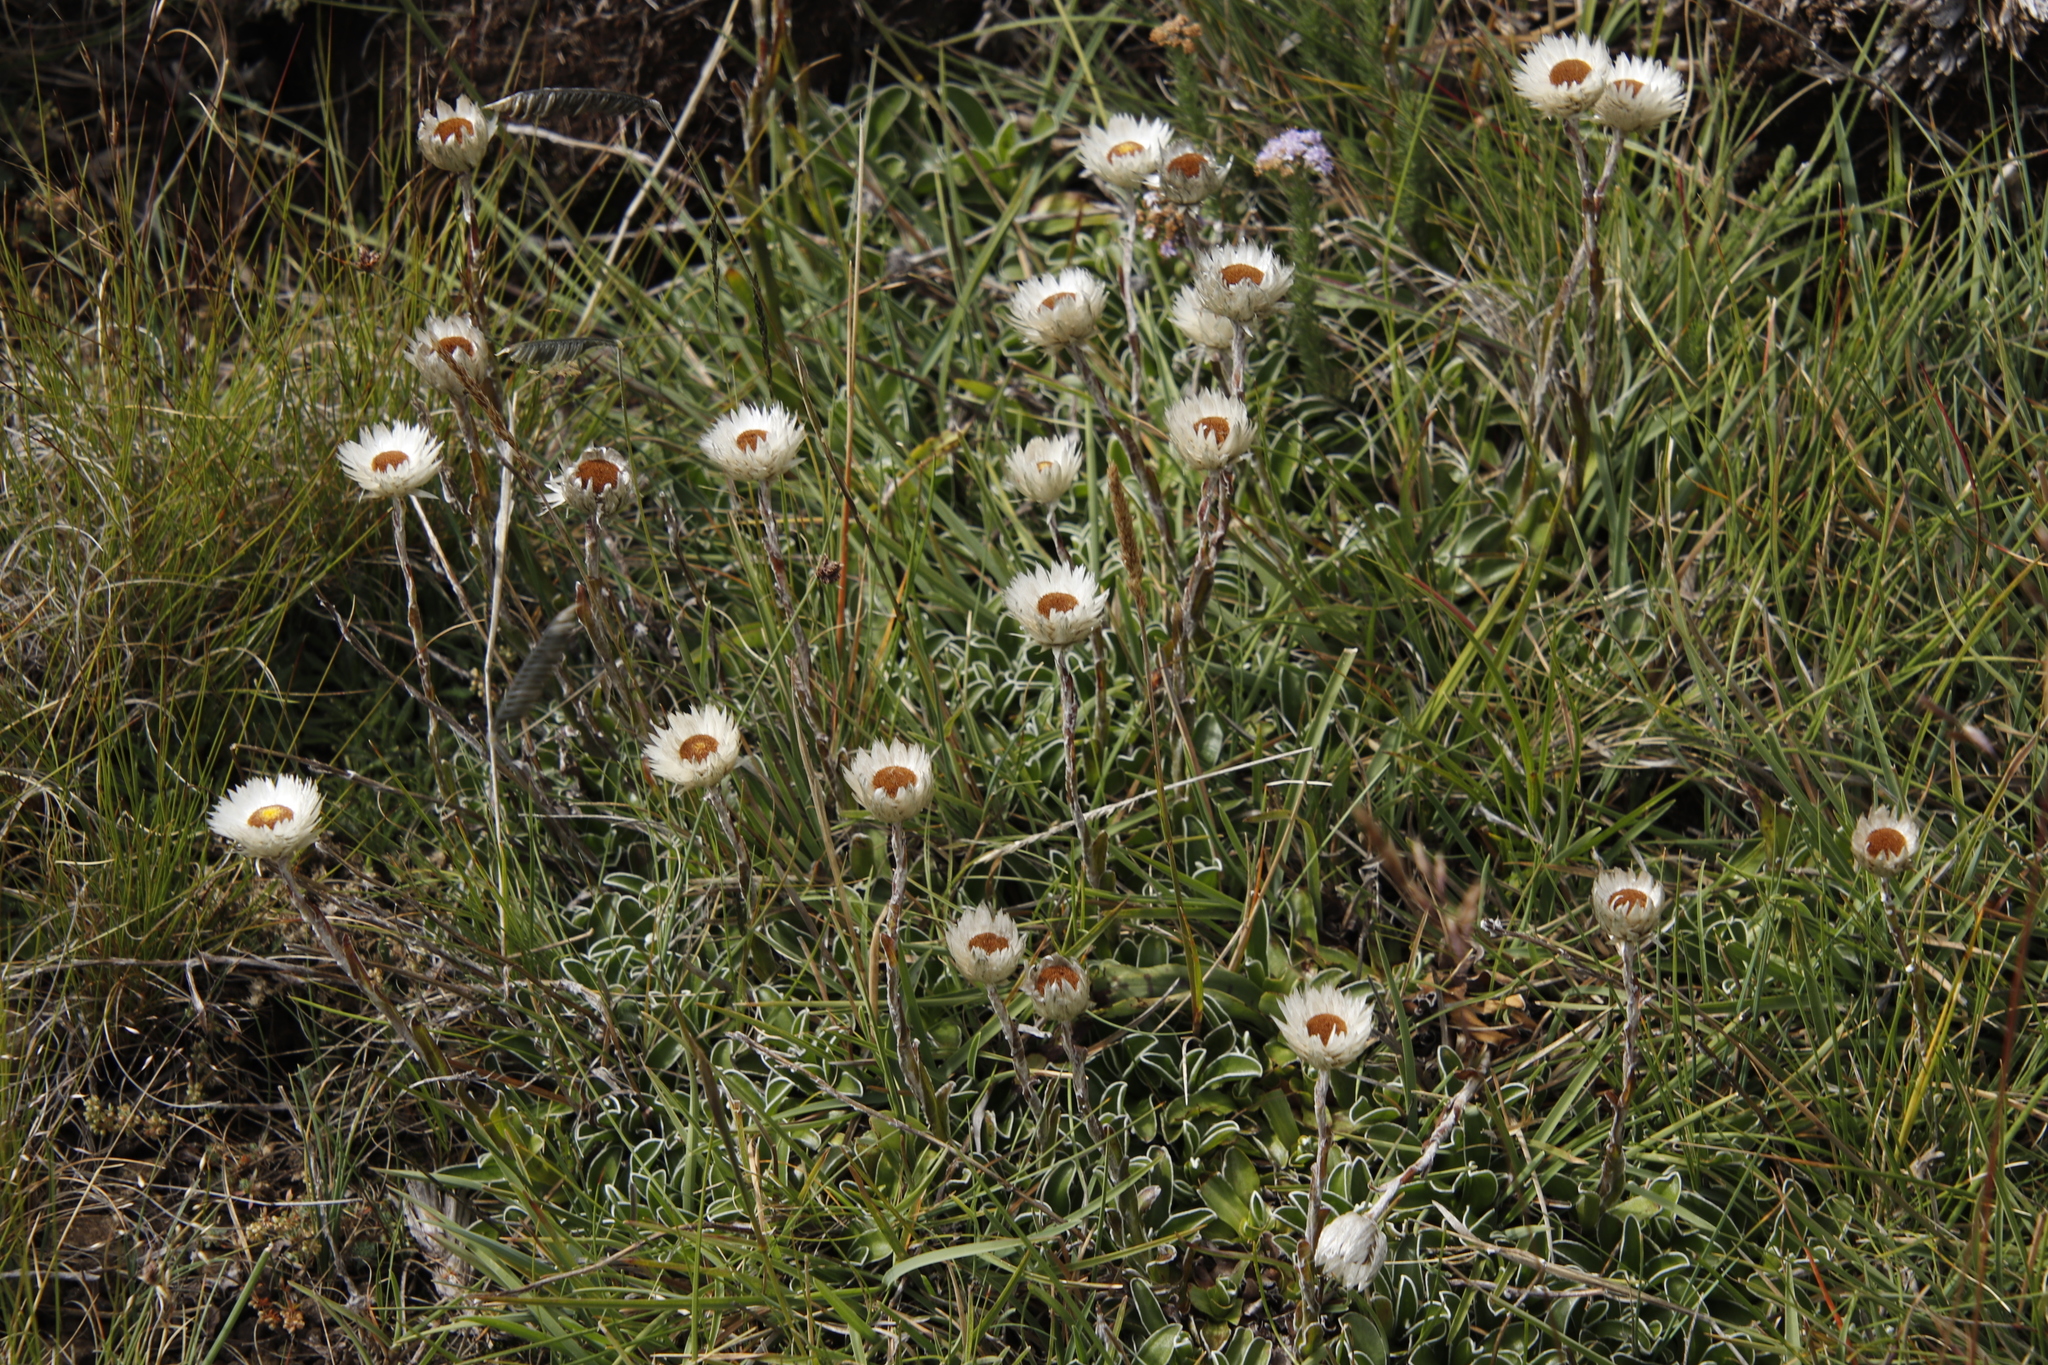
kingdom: Plantae
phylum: Tracheophyta
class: Magnoliopsida
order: Asterales
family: Asteraceae
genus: Helichrysum
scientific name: Helichrysum marginatum
